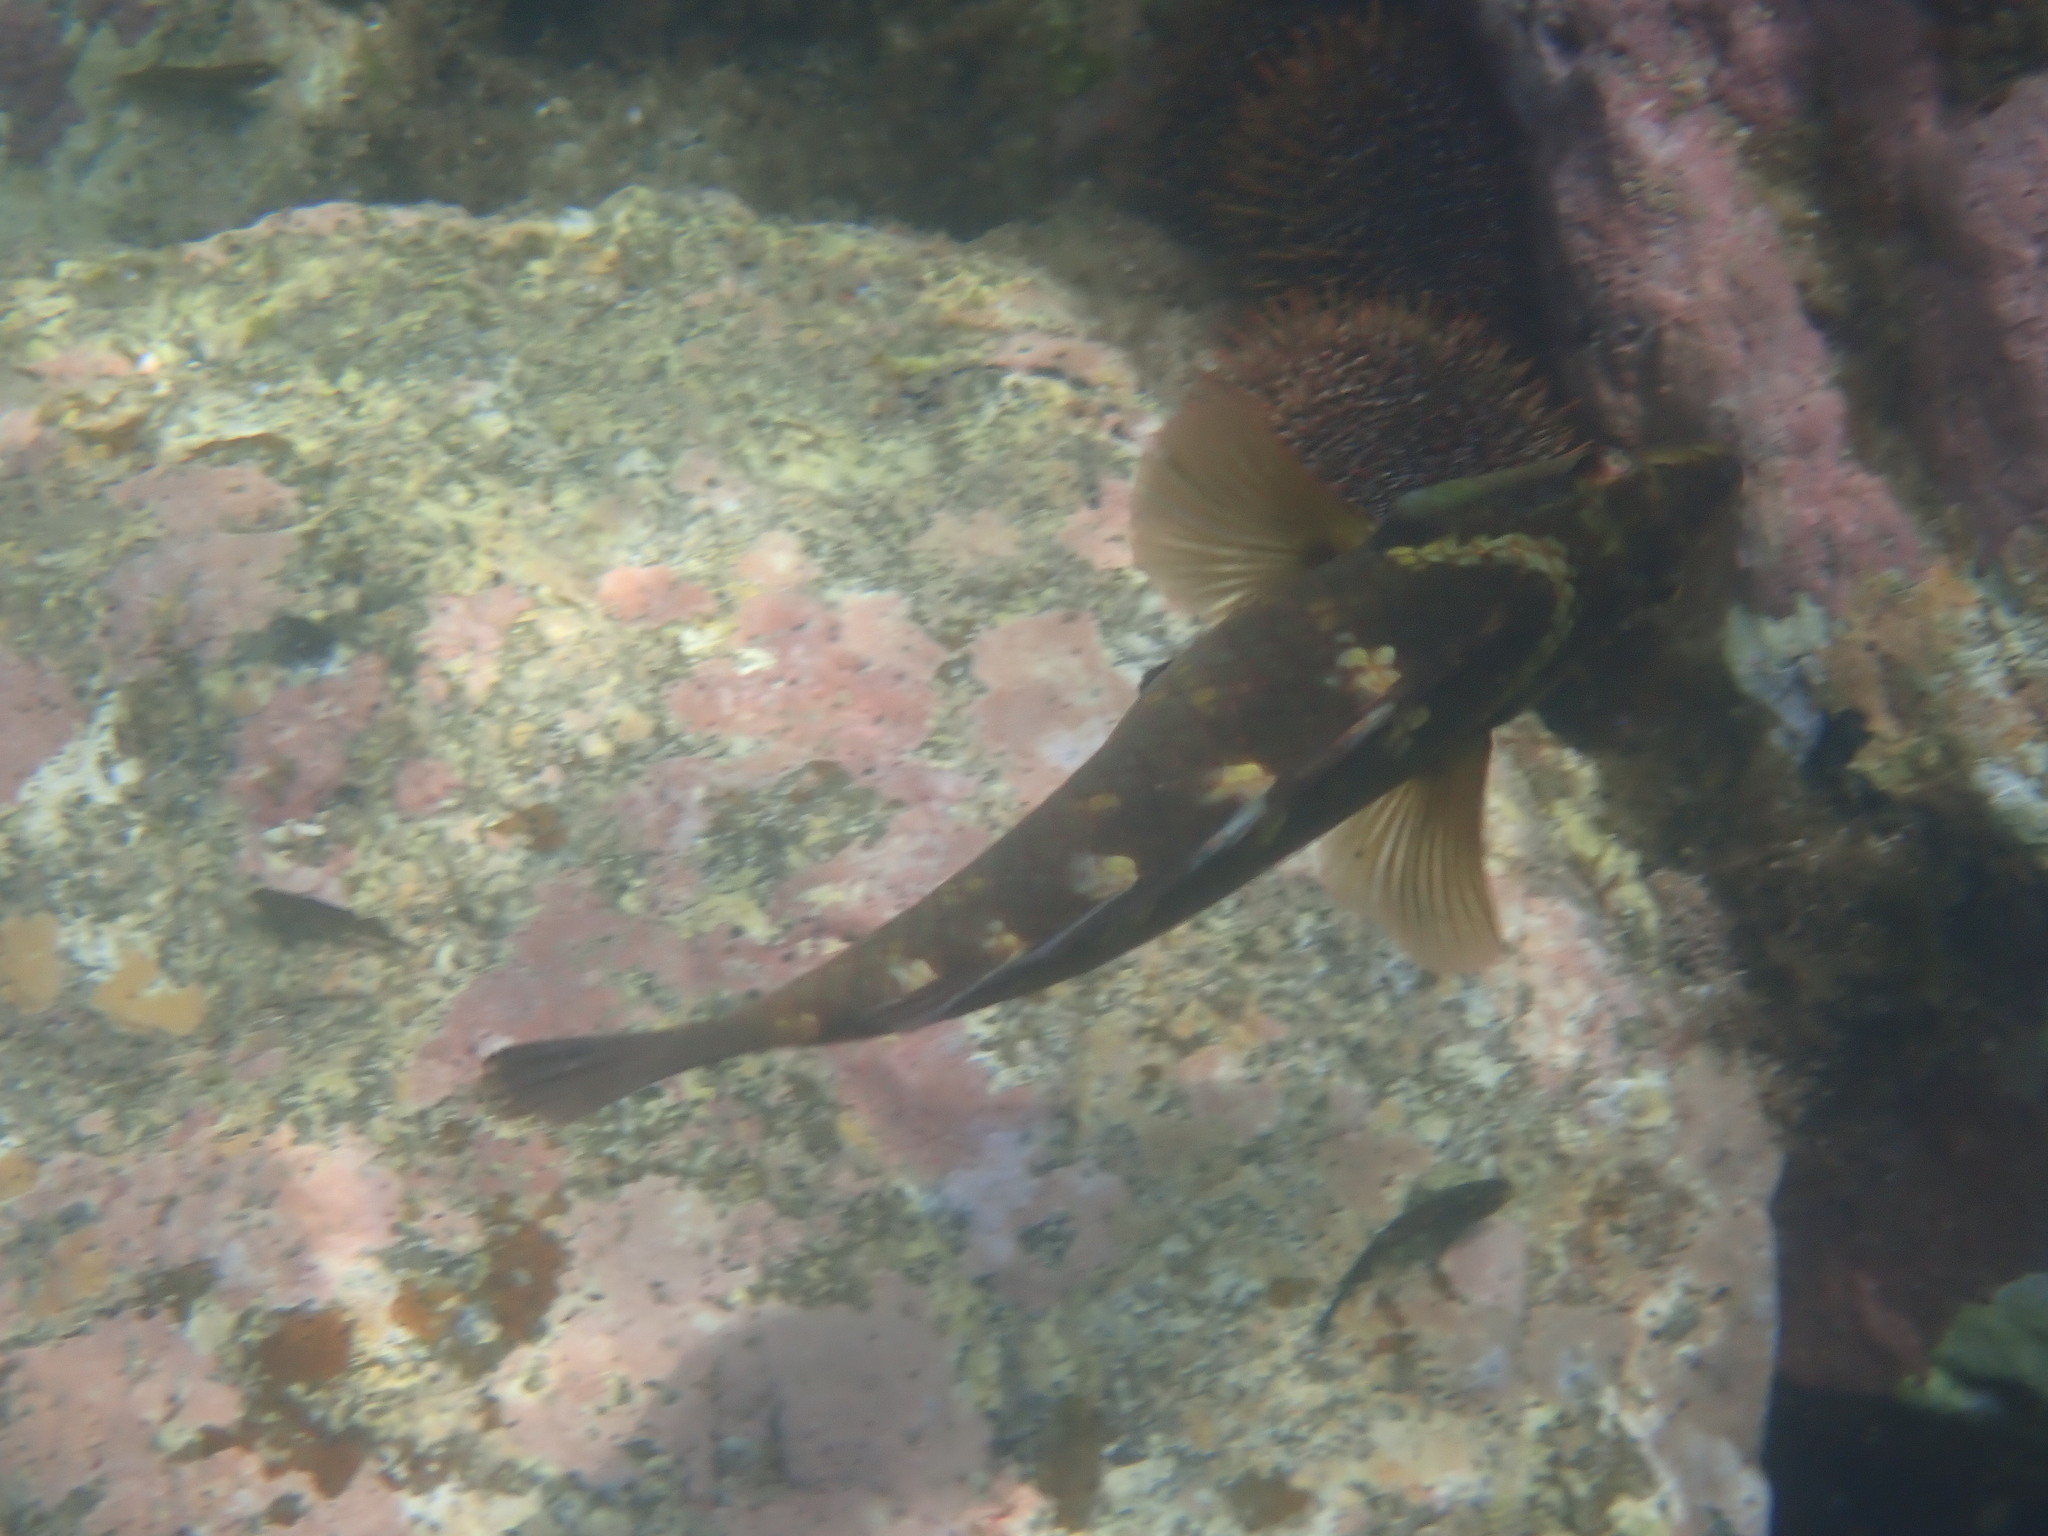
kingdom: Animalia
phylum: Chordata
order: Perciformes
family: Labridae
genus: Notolabrus
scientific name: Notolabrus fucicola
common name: Banded parrotfish
